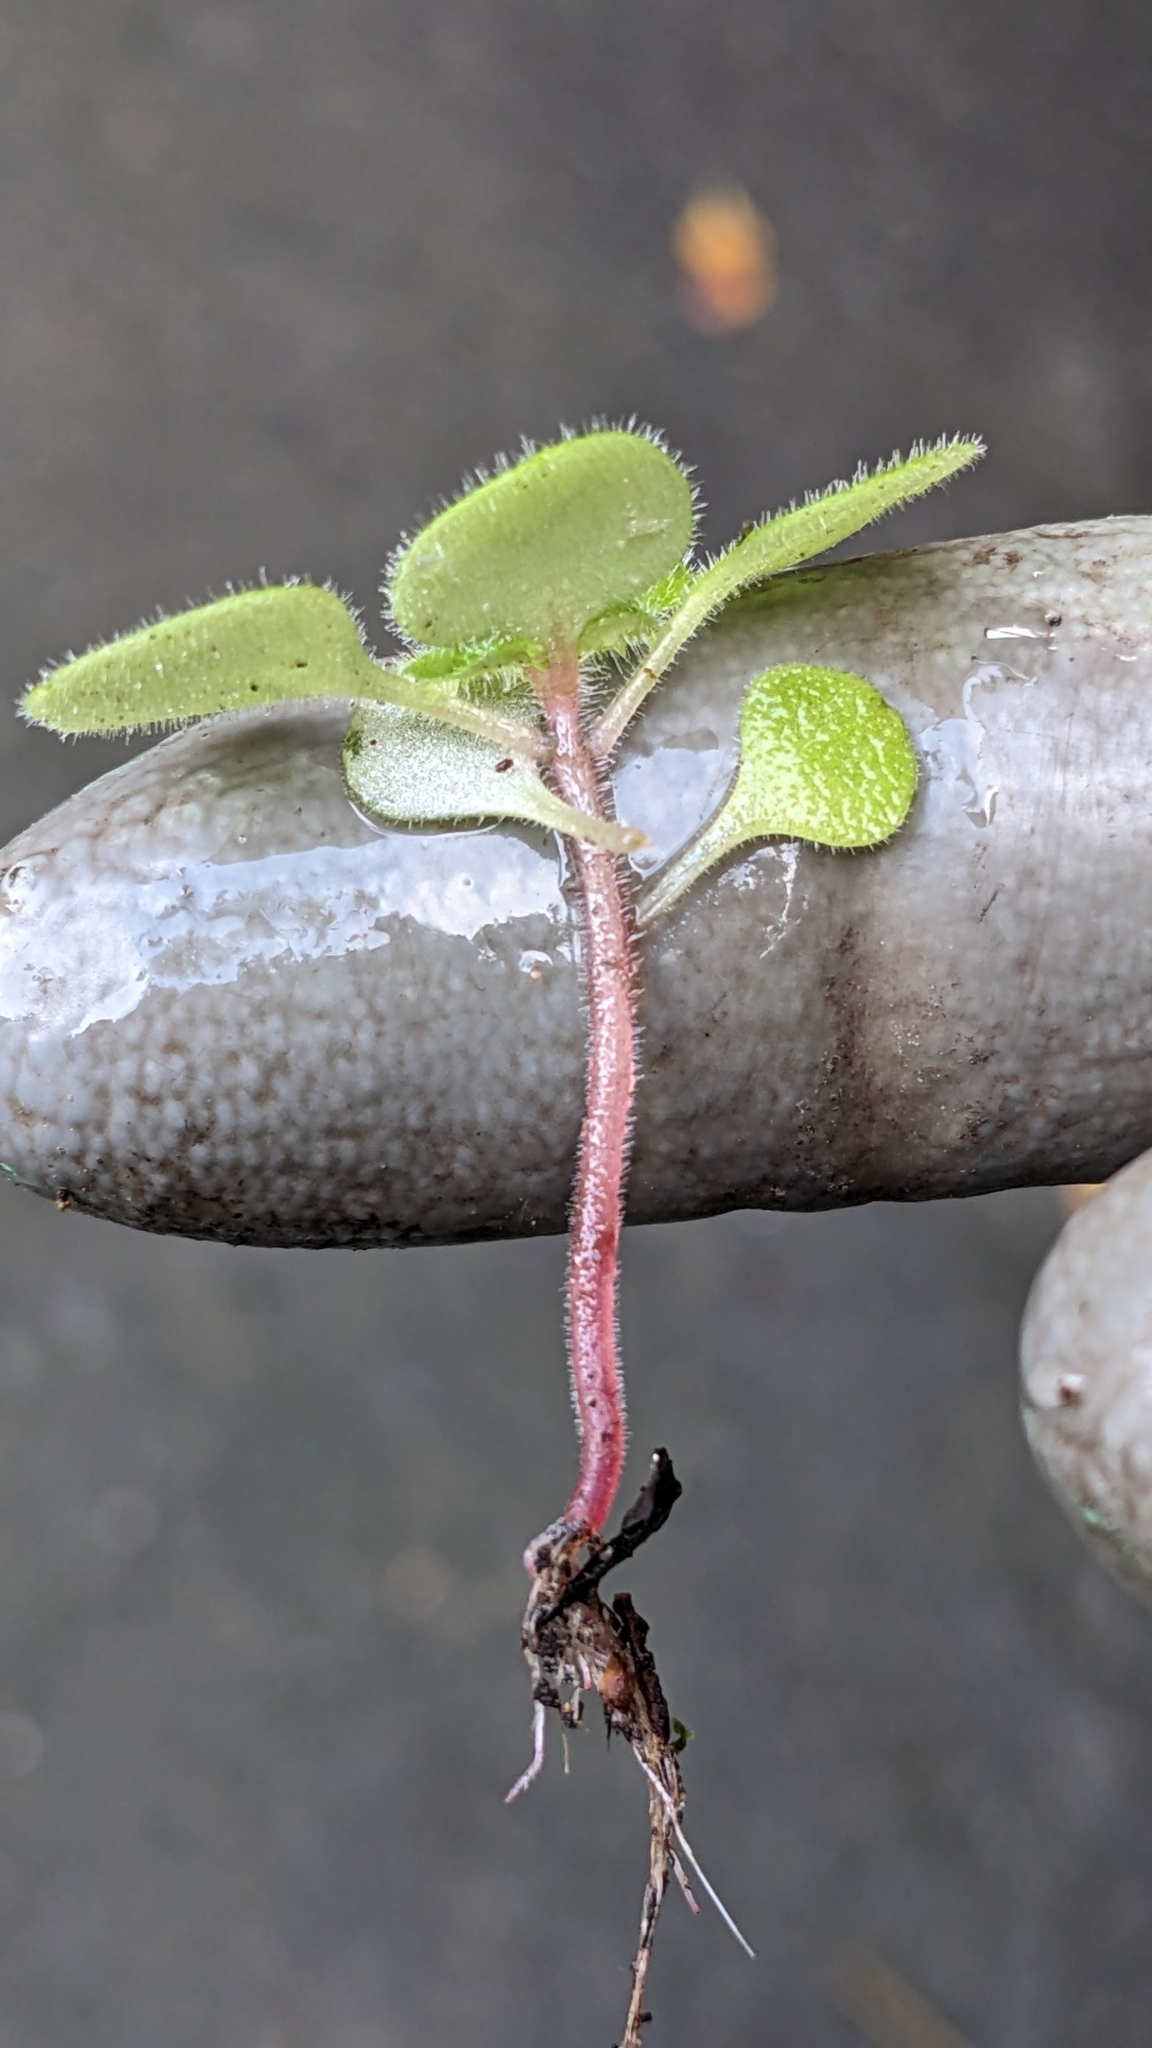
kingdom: Plantae
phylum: Tracheophyta
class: Magnoliopsida
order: Saxifragales
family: Crassulaceae
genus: Aichryson
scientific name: Aichryson laxum
